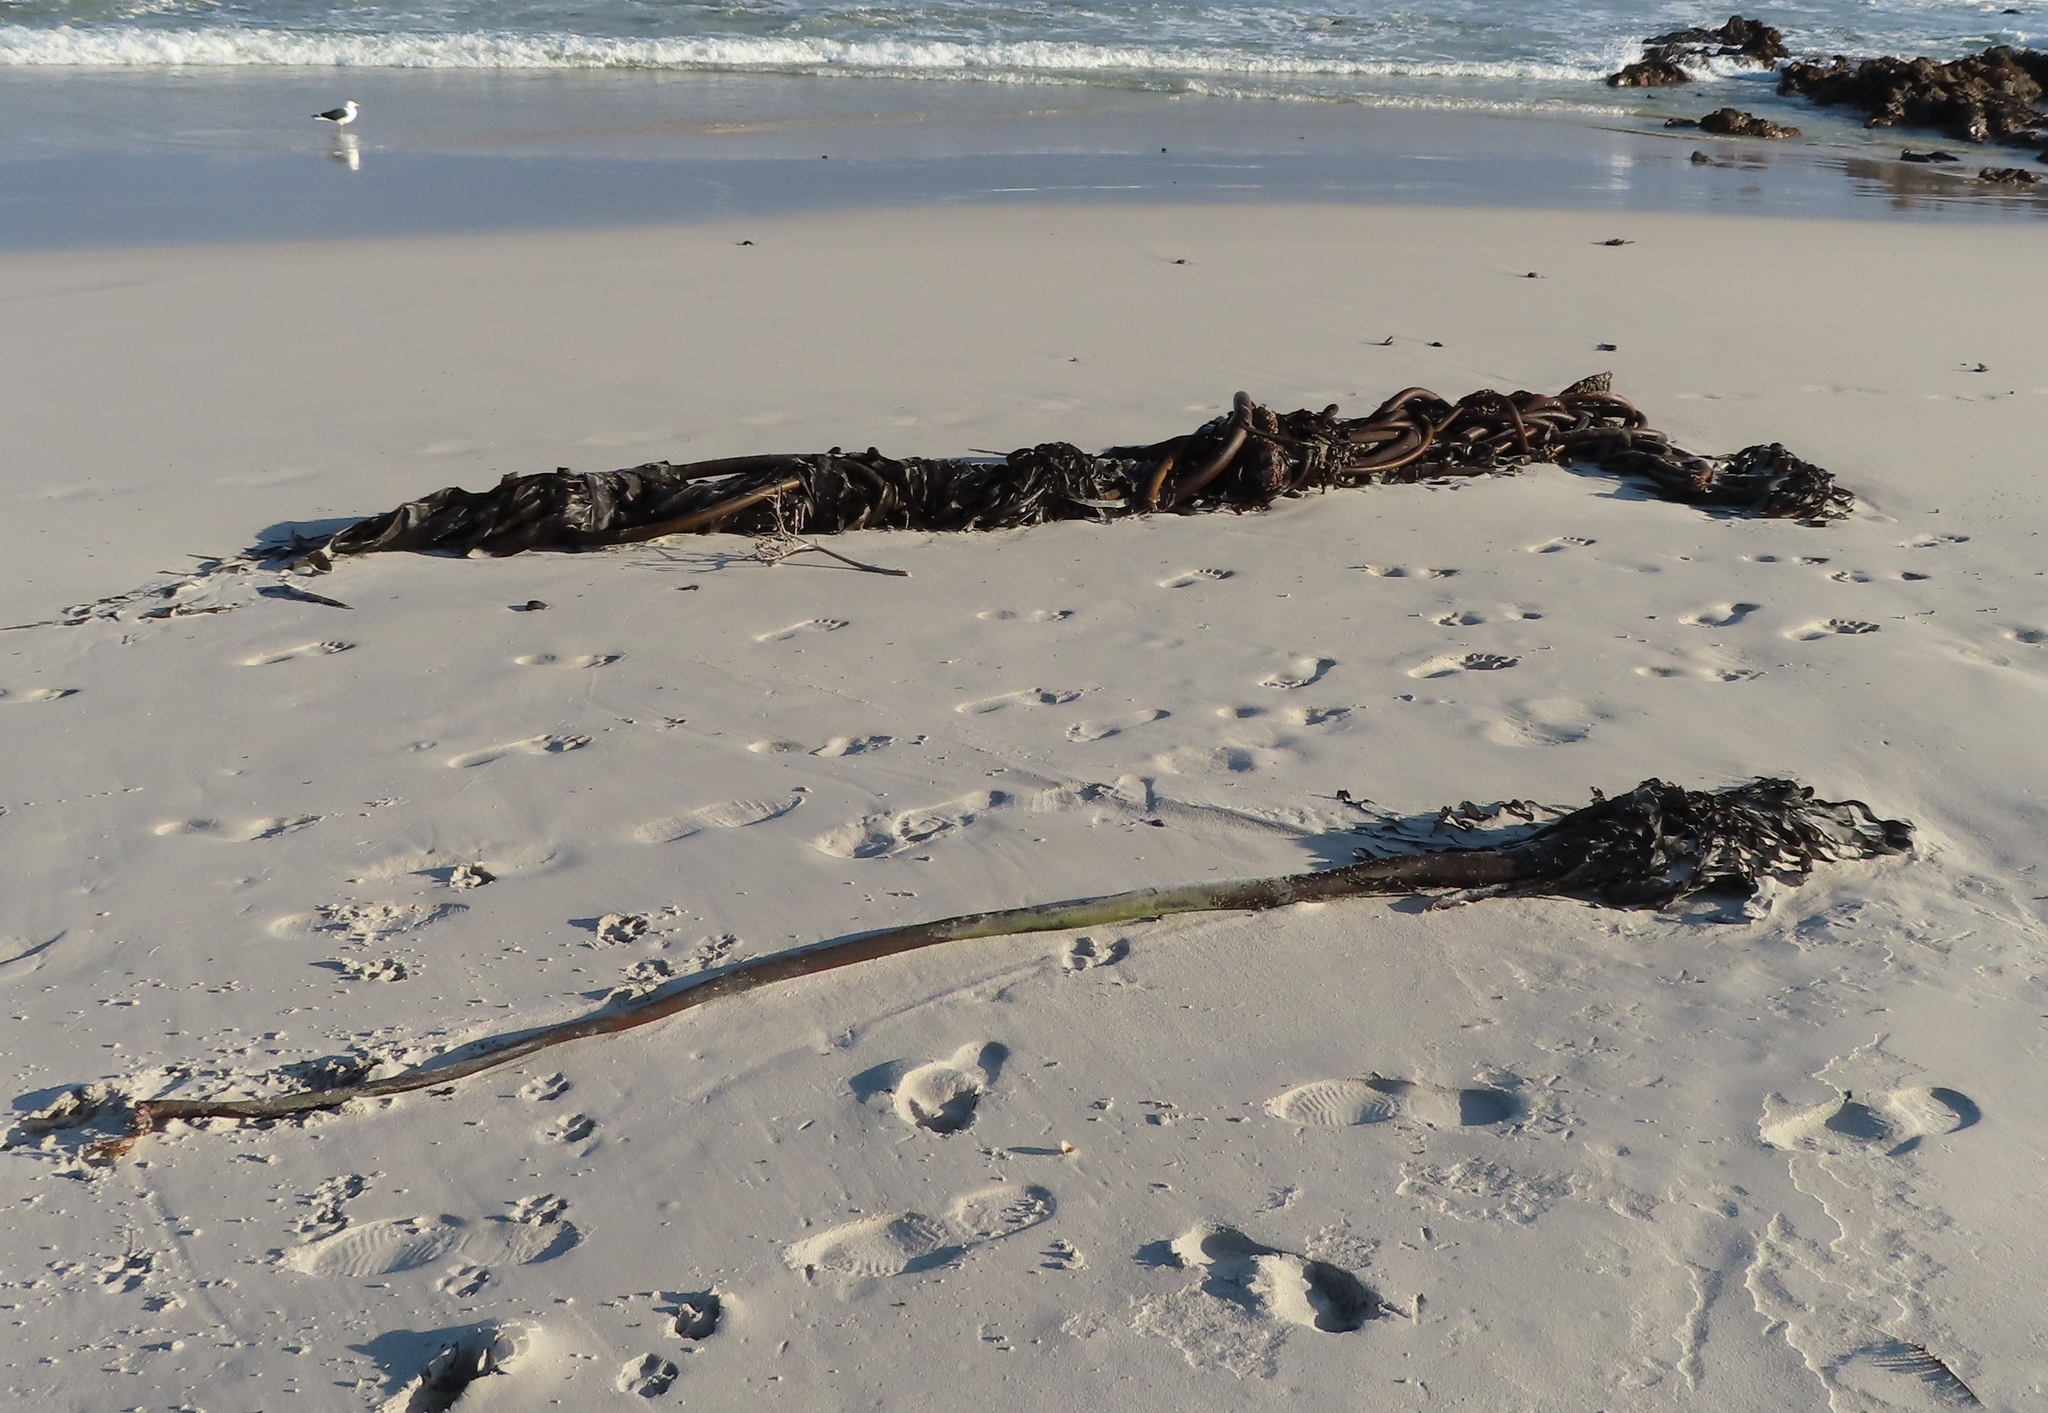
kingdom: Chromista
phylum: Ochrophyta
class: Phaeophyceae
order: Laminariales
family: Lessoniaceae
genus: Ecklonia
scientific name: Ecklonia
